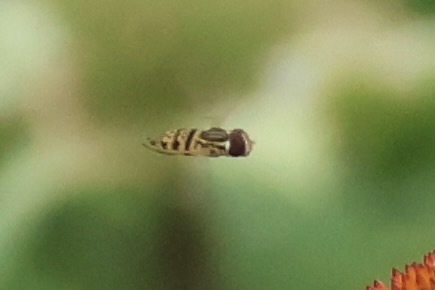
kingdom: Animalia
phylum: Arthropoda
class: Insecta
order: Diptera
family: Syrphidae
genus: Toxomerus
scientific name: Toxomerus geminatus
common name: Eastern calligrapher
